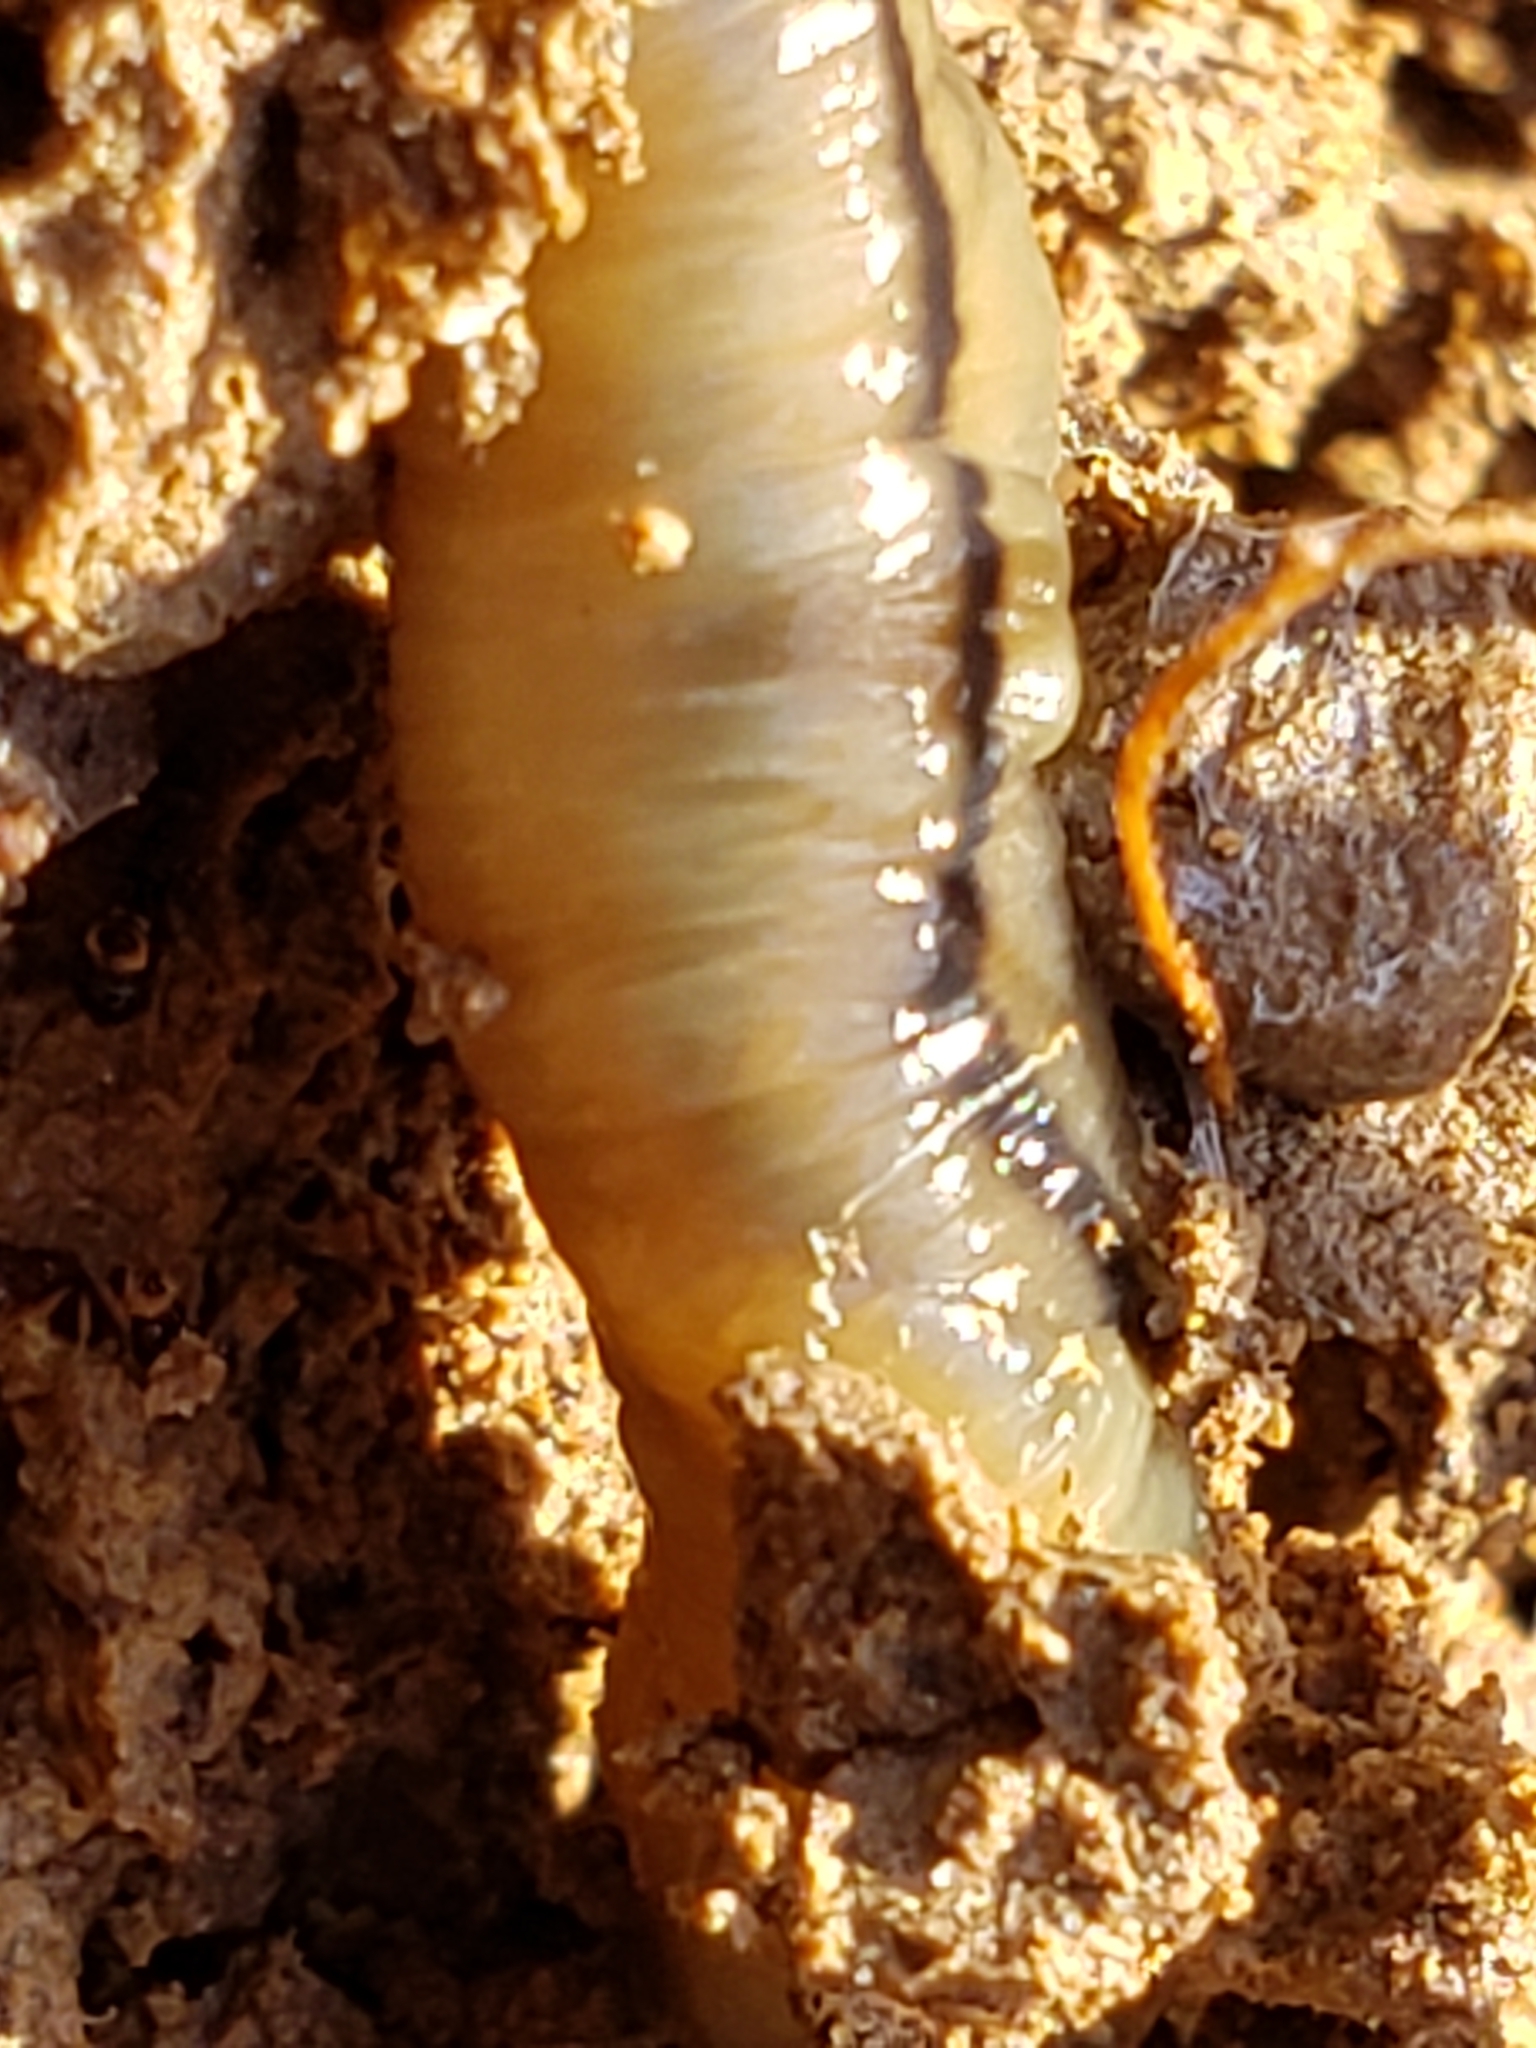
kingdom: Animalia
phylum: Platyhelminthes
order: Tricladida
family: Geoplanidae
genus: Bipalium
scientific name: Bipalium pennsylvanicum
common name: Three-lined land planarian
